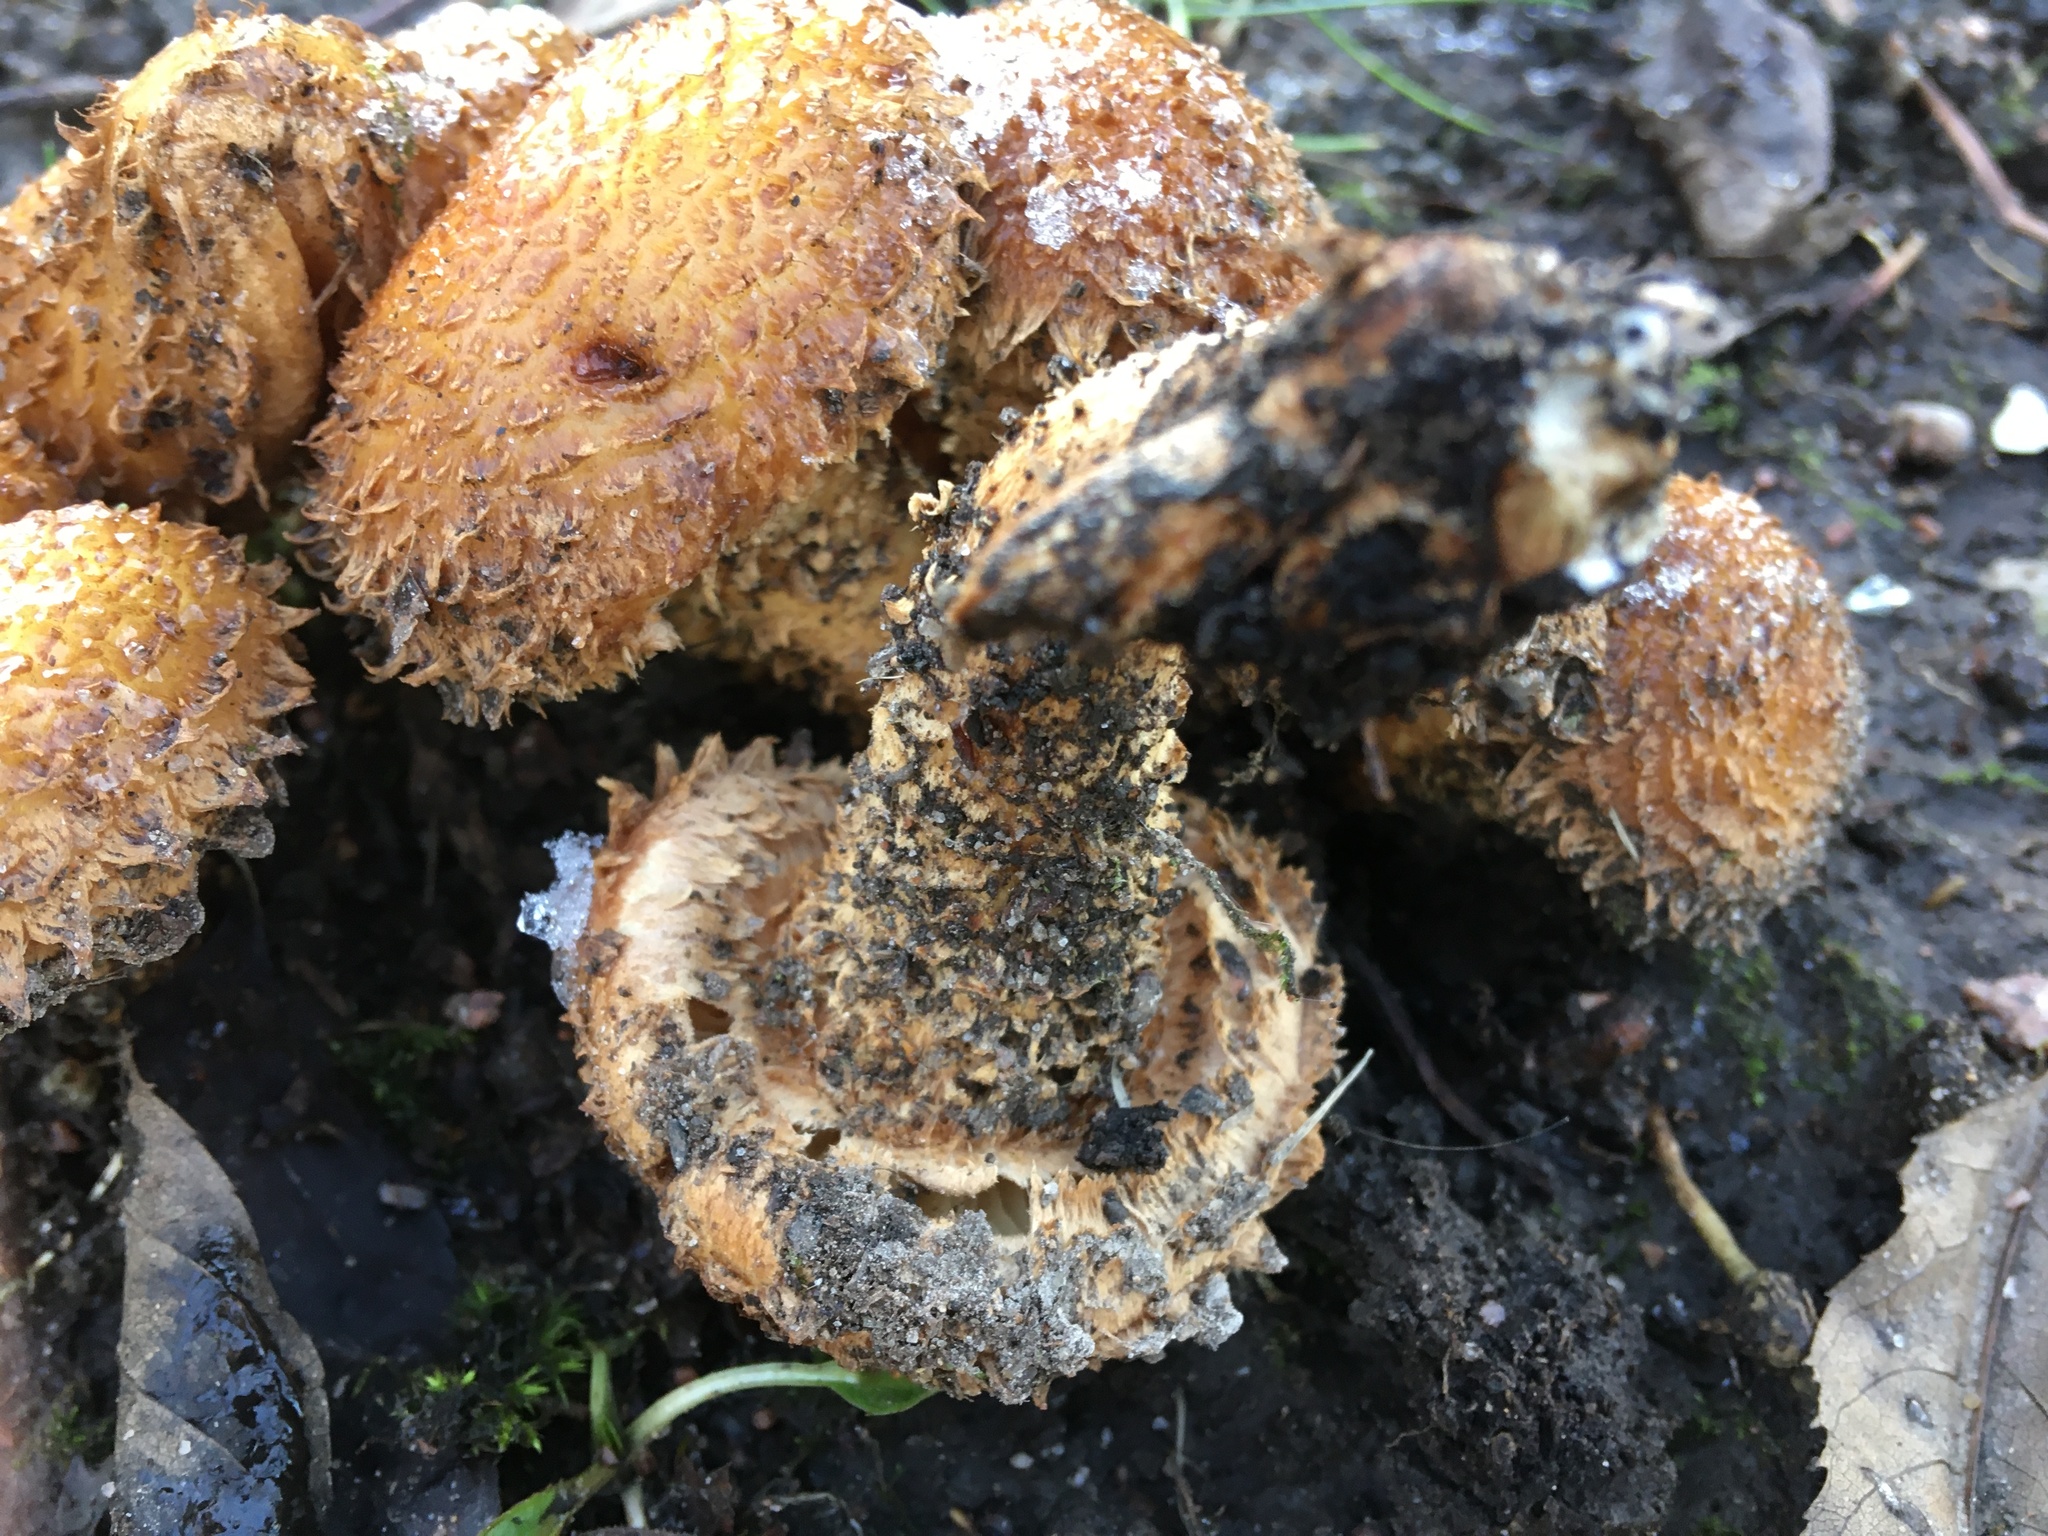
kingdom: Fungi
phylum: Basidiomycota
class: Agaricomycetes
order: Agaricales
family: Strophariaceae
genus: Pholiota
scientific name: Pholiota squarrosa
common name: Shaggy pholiota
